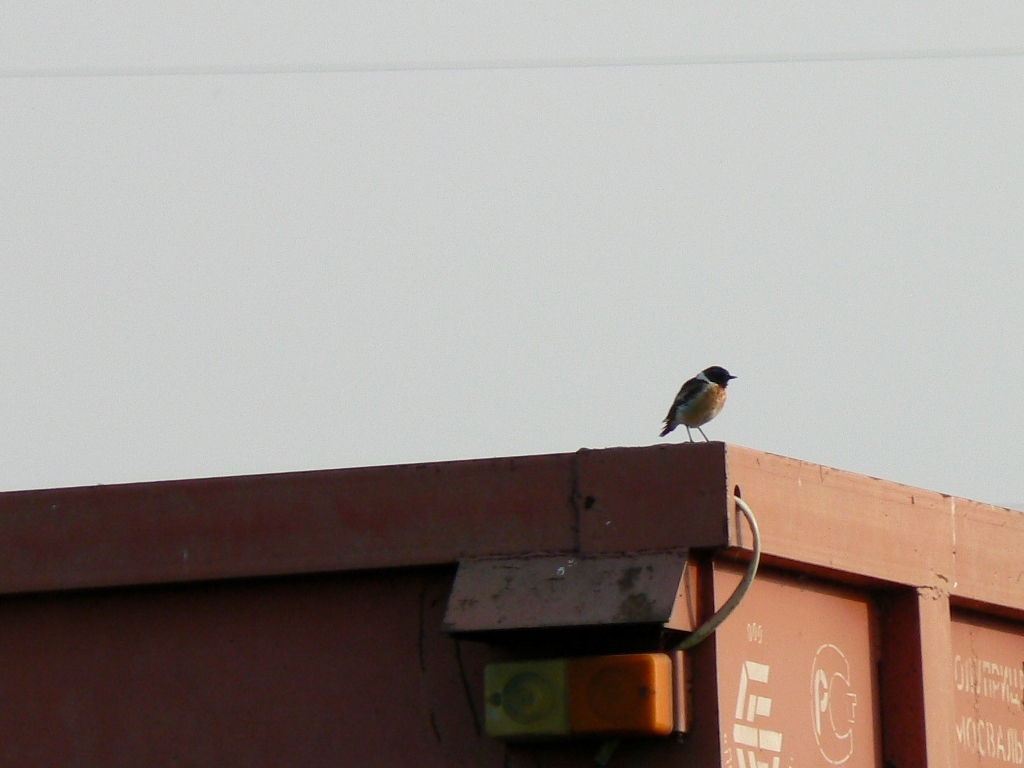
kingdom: Animalia
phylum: Chordata
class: Aves
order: Passeriformes
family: Muscicapidae
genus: Saxicola
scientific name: Saxicola maurus
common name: Siberian stonechat
